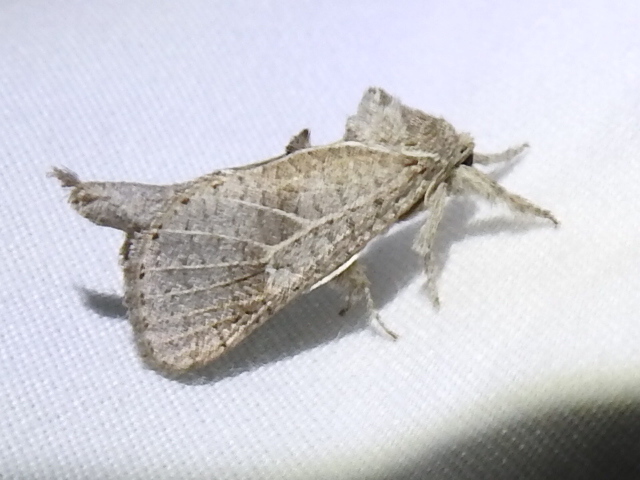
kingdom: Animalia
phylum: Arthropoda
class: Insecta
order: Lepidoptera
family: Cossidae
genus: Givira
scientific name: Givira anna
